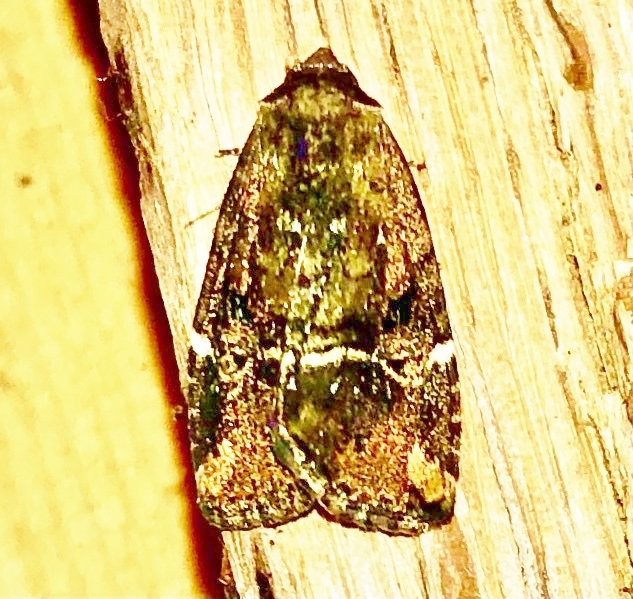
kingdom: Animalia
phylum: Arthropoda
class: Insecta
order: Lepidoptera
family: Noctuidae
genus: Elaphria
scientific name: Elaphria versicolor
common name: Fir harlequin
